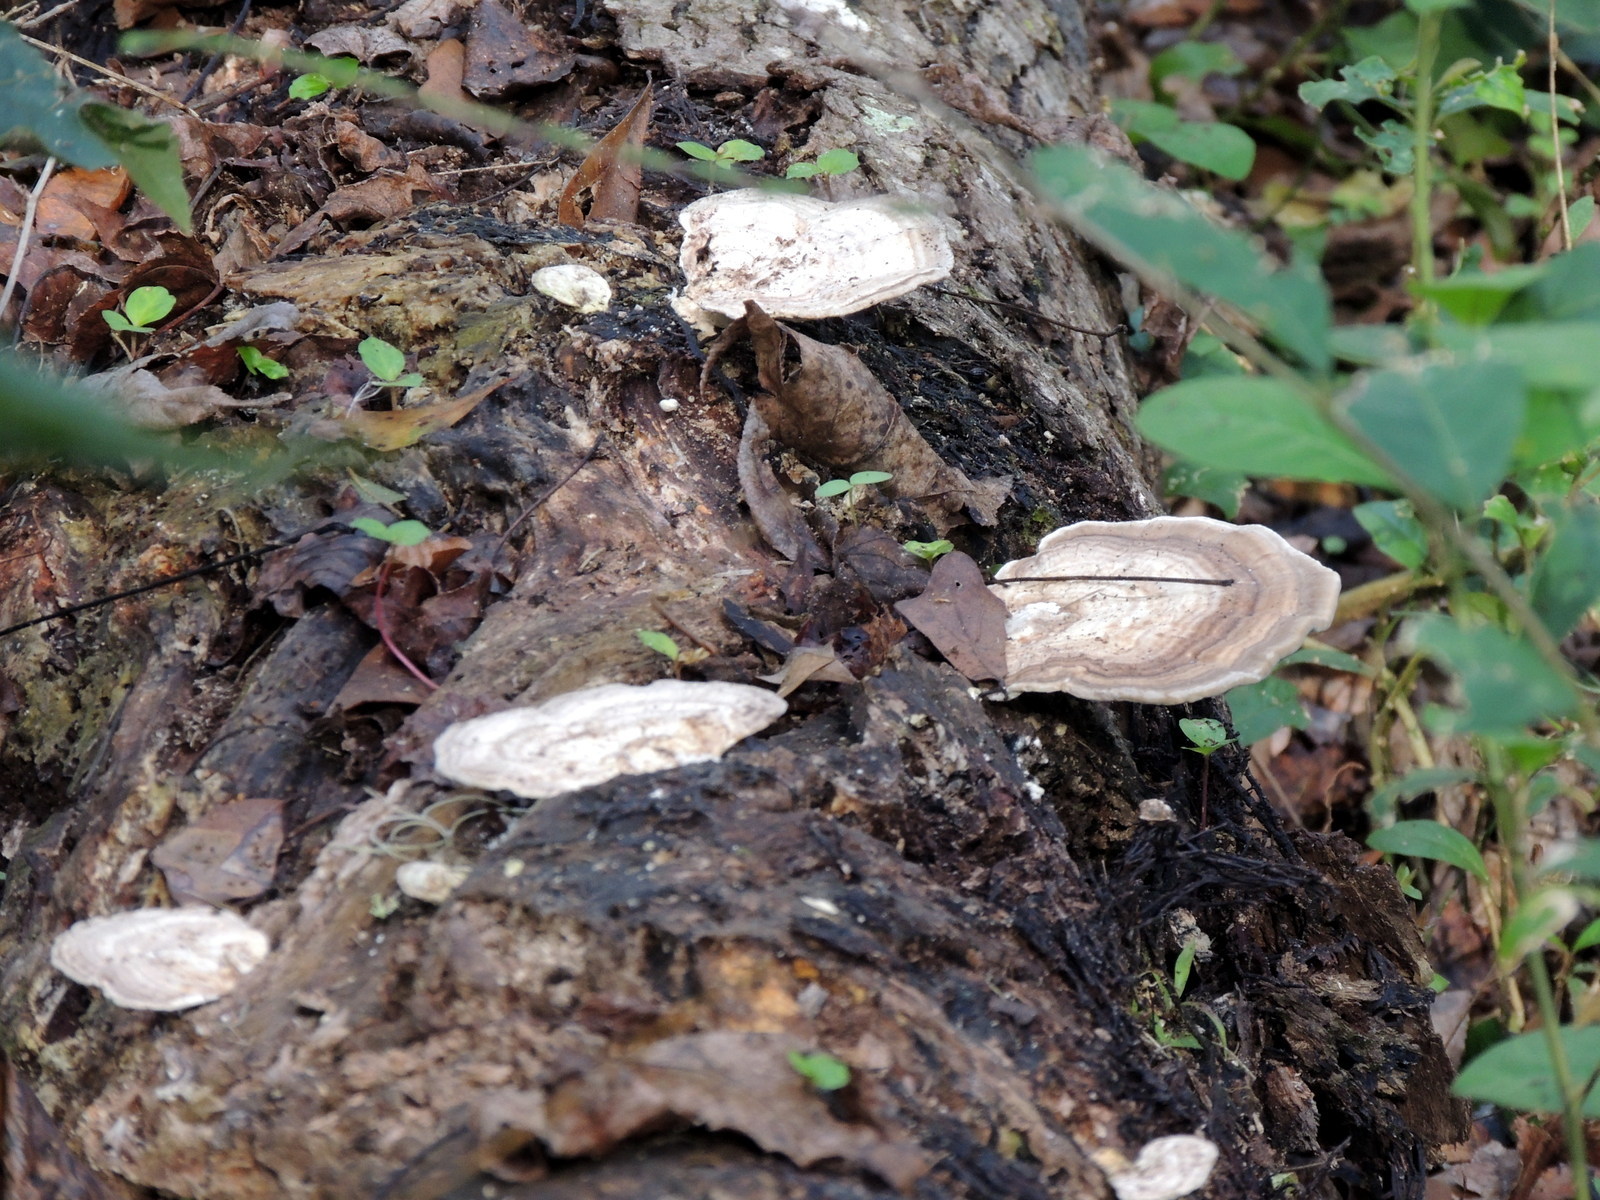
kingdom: Fungi
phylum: Basidiomycota
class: Agaricomycetes
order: Polyporales
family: Polyporaceae
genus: Trametes
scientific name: Trametes lactinea
